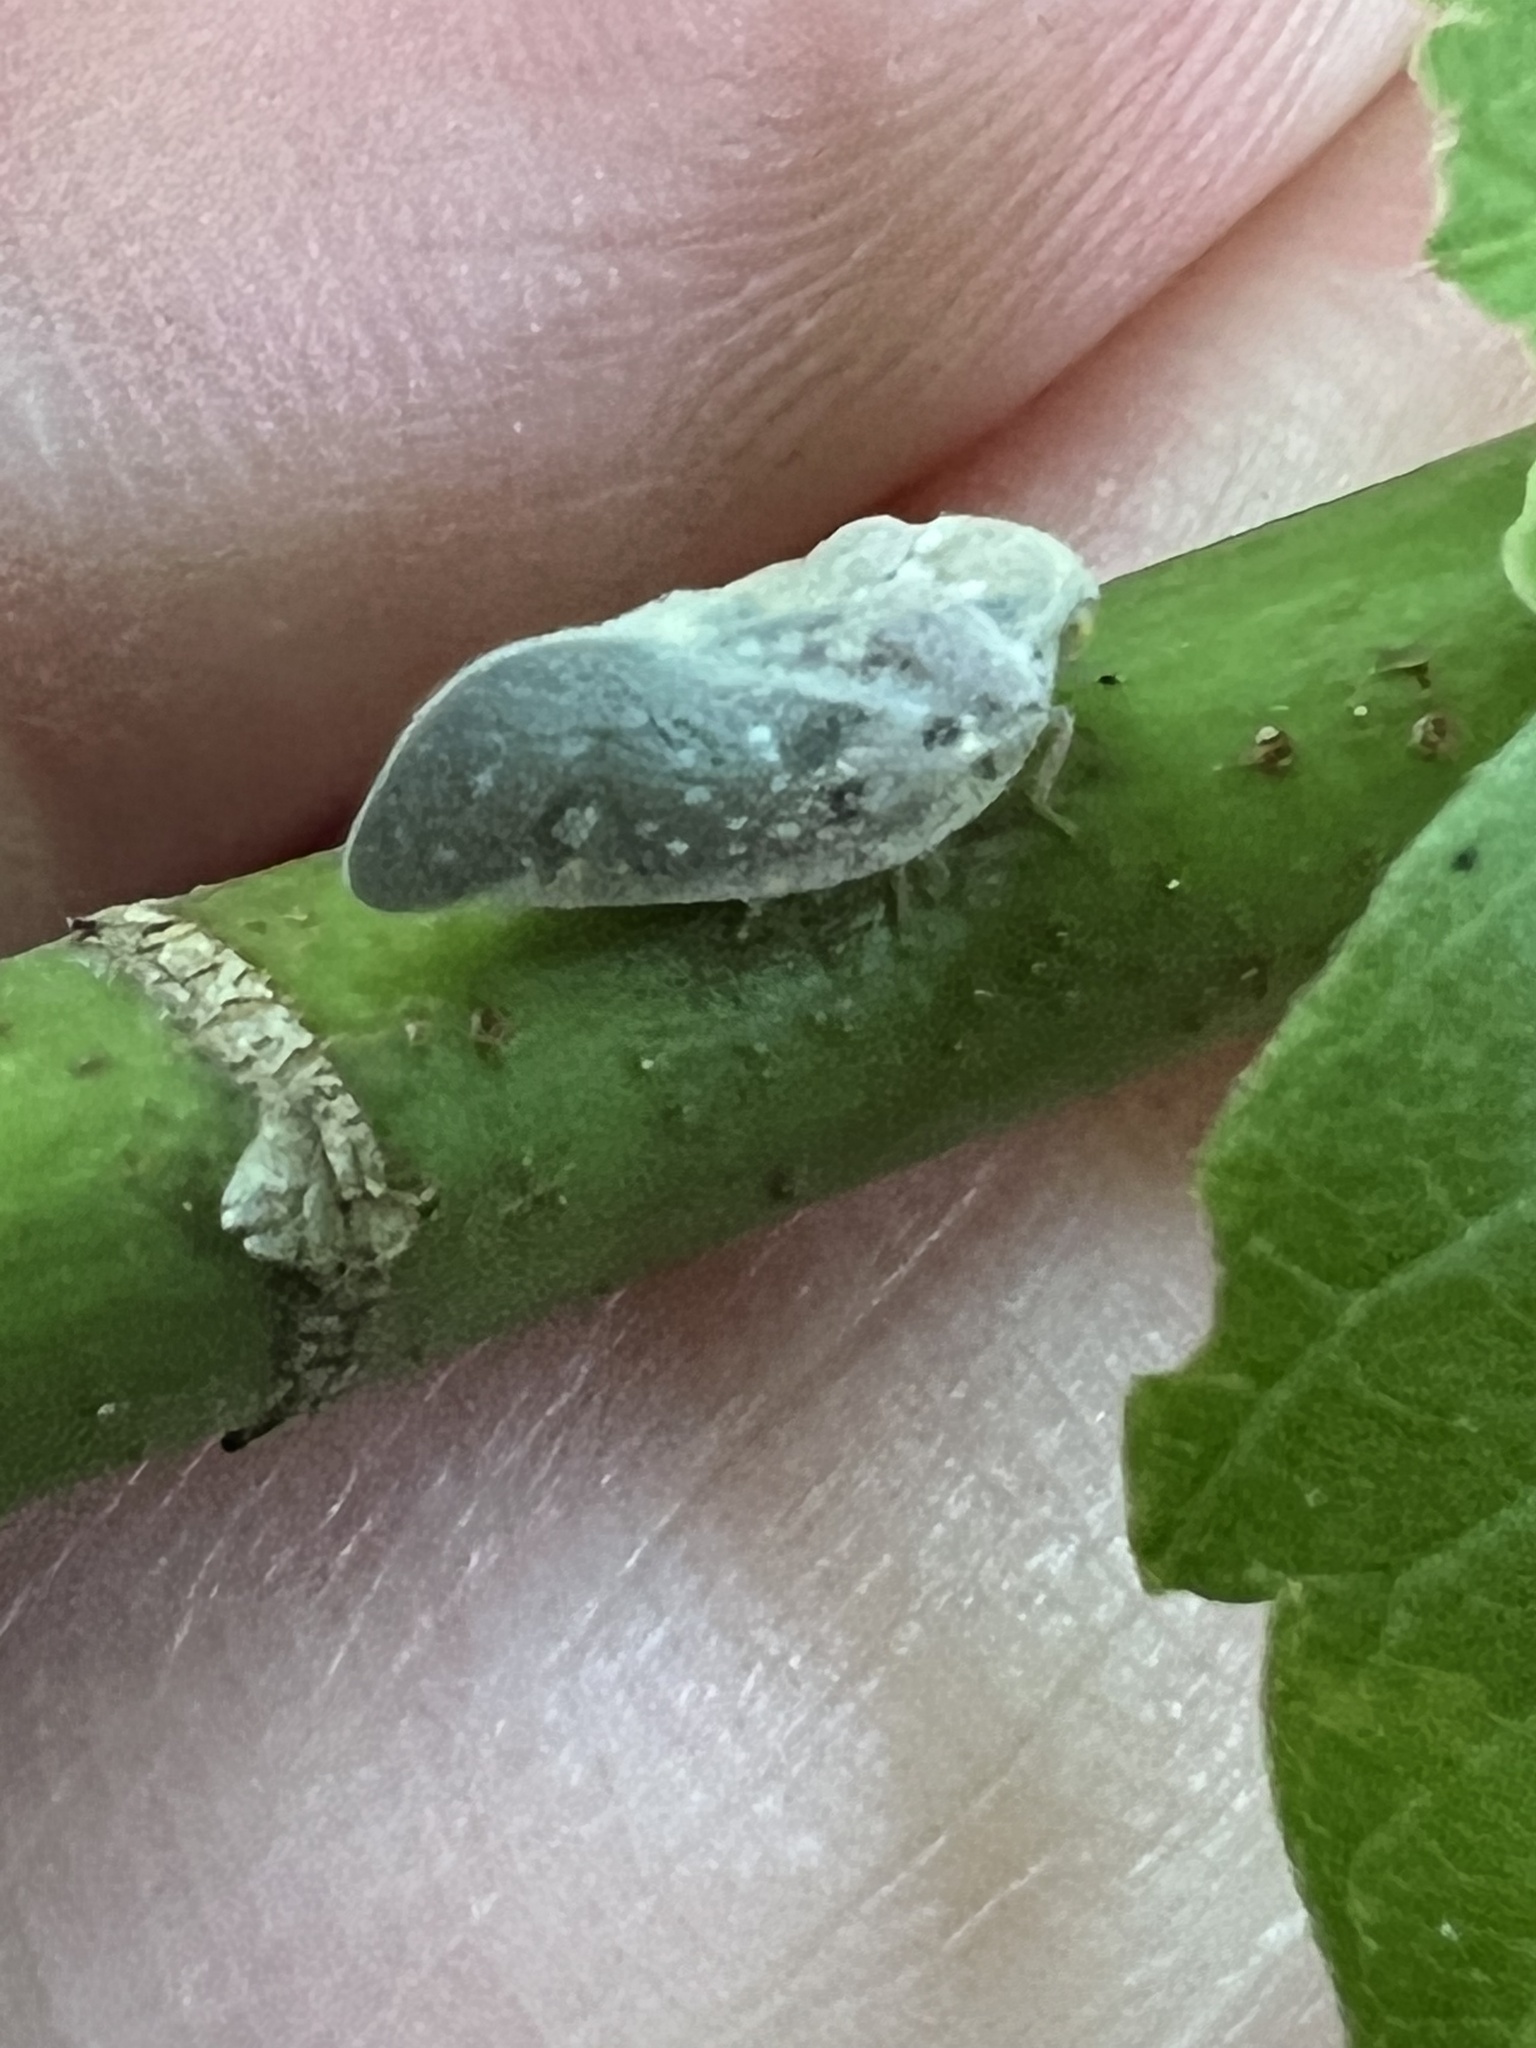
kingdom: Animalia
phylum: Arthropoda
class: Insecta
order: Hemiptera
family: Flatidae
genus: Metcalfa
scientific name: Metcalfa pruinosa
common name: Citrus flatid planthopper
